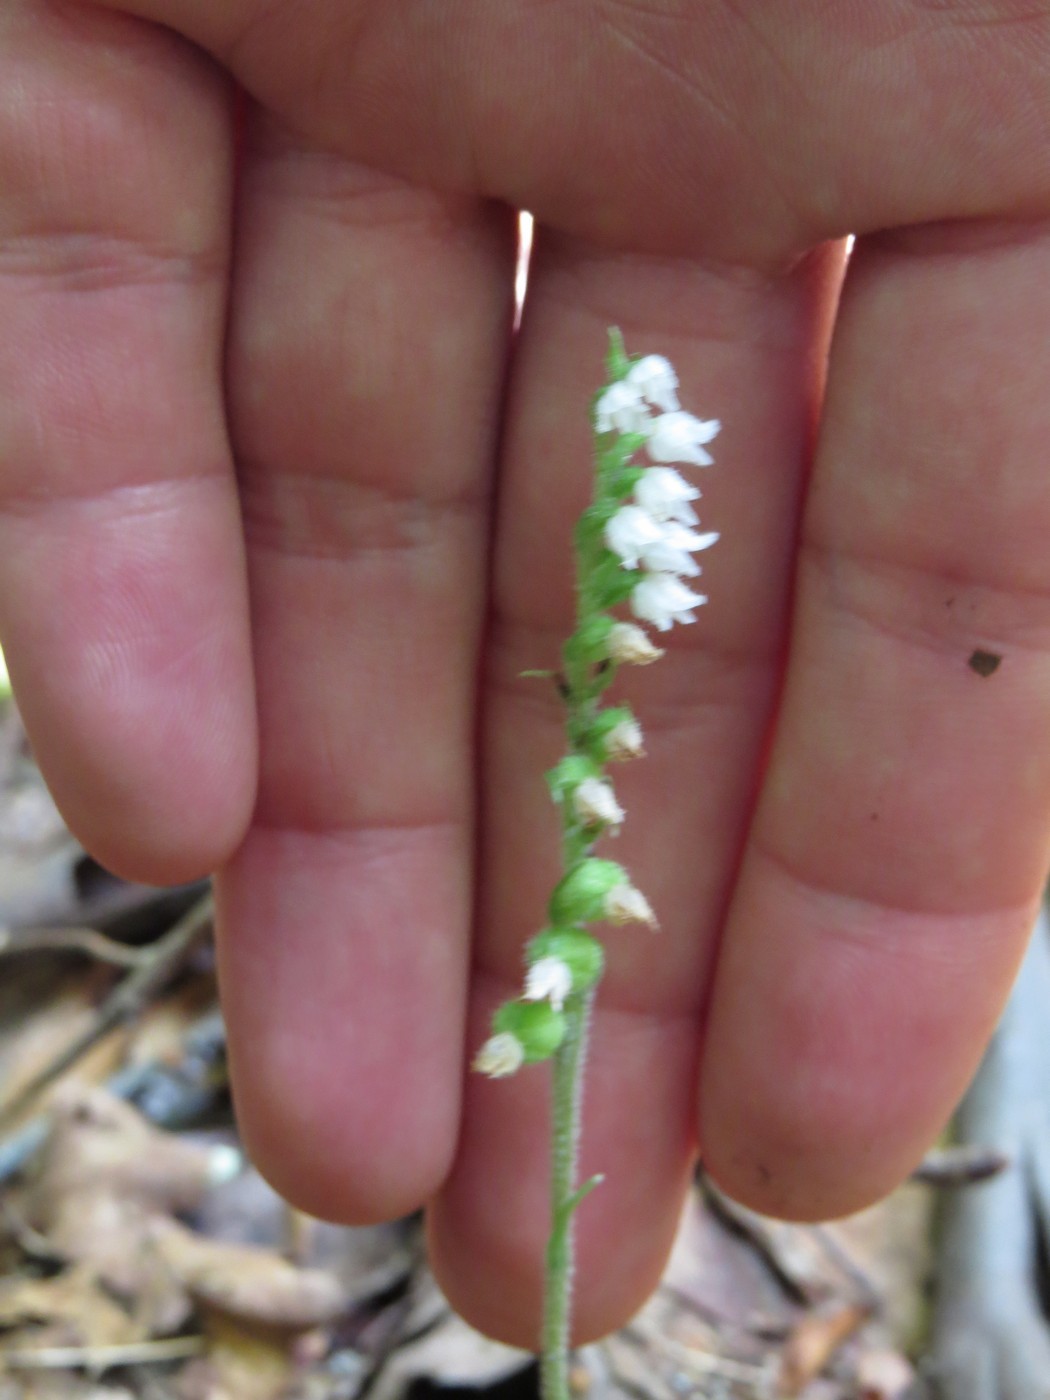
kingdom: Plantae
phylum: Tracheophyta
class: Liliopsida
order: Asparagales
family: Orchidaceae
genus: Goodyera
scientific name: Goodyera repens
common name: Creeping lady's-tresses
